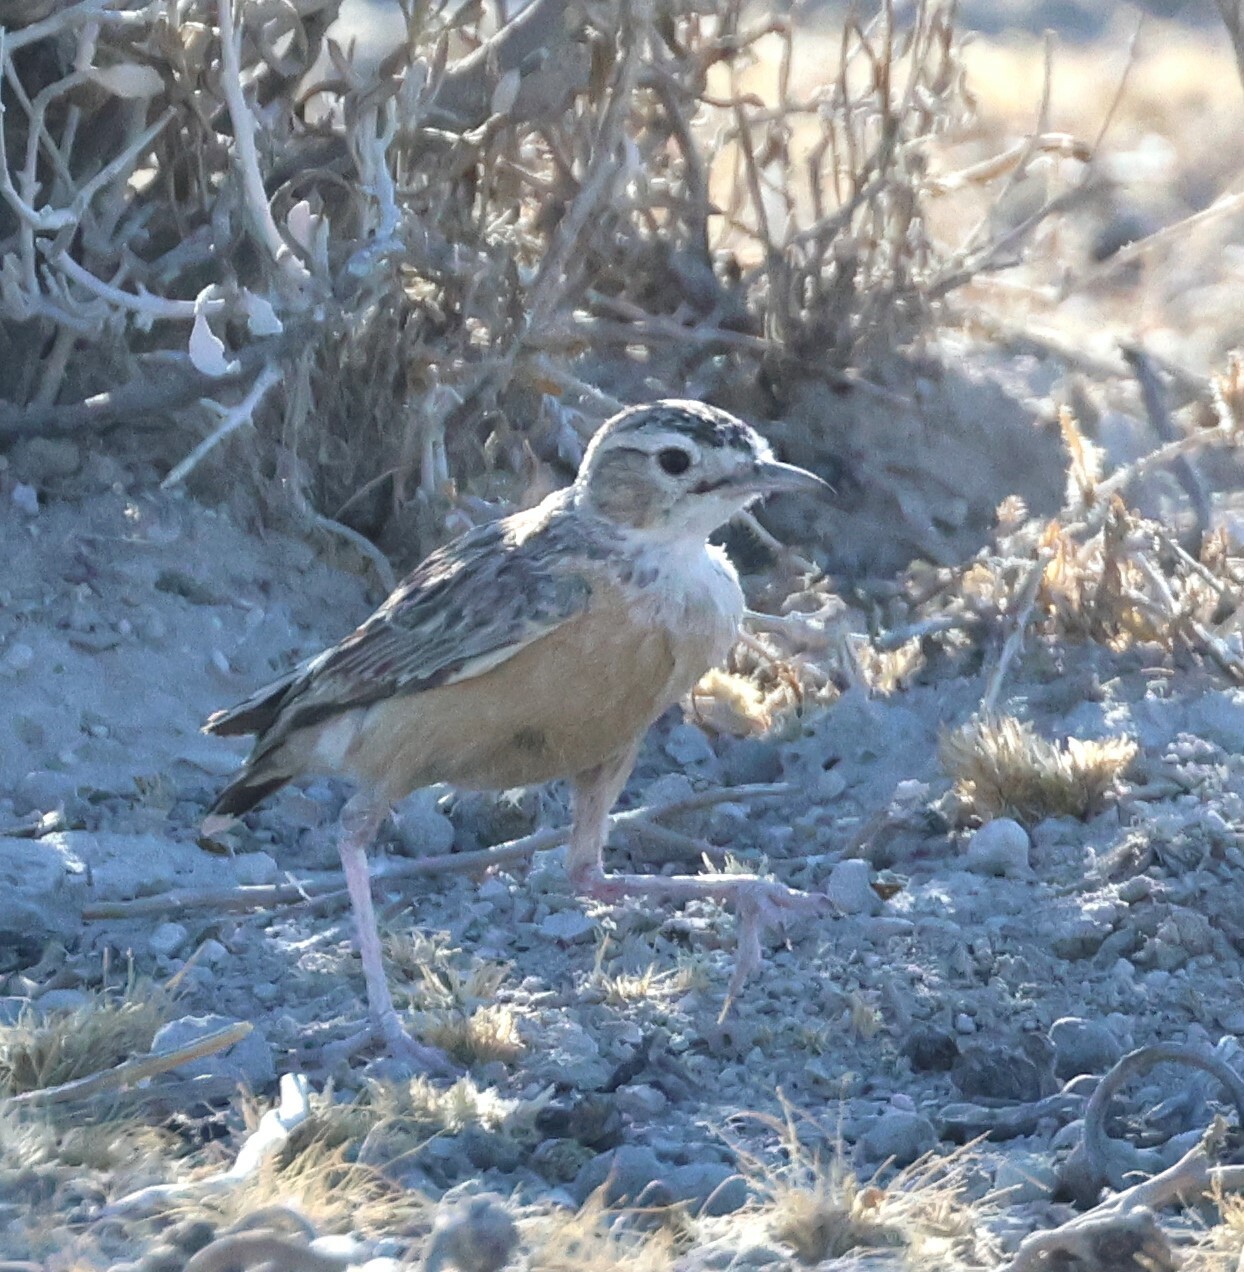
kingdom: Animalia
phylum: Chordata
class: Aves
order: Passeriformes
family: Alaudidae
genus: Chersomanes
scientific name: Chersomanes albofasciata
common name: Spike-heeled lark
